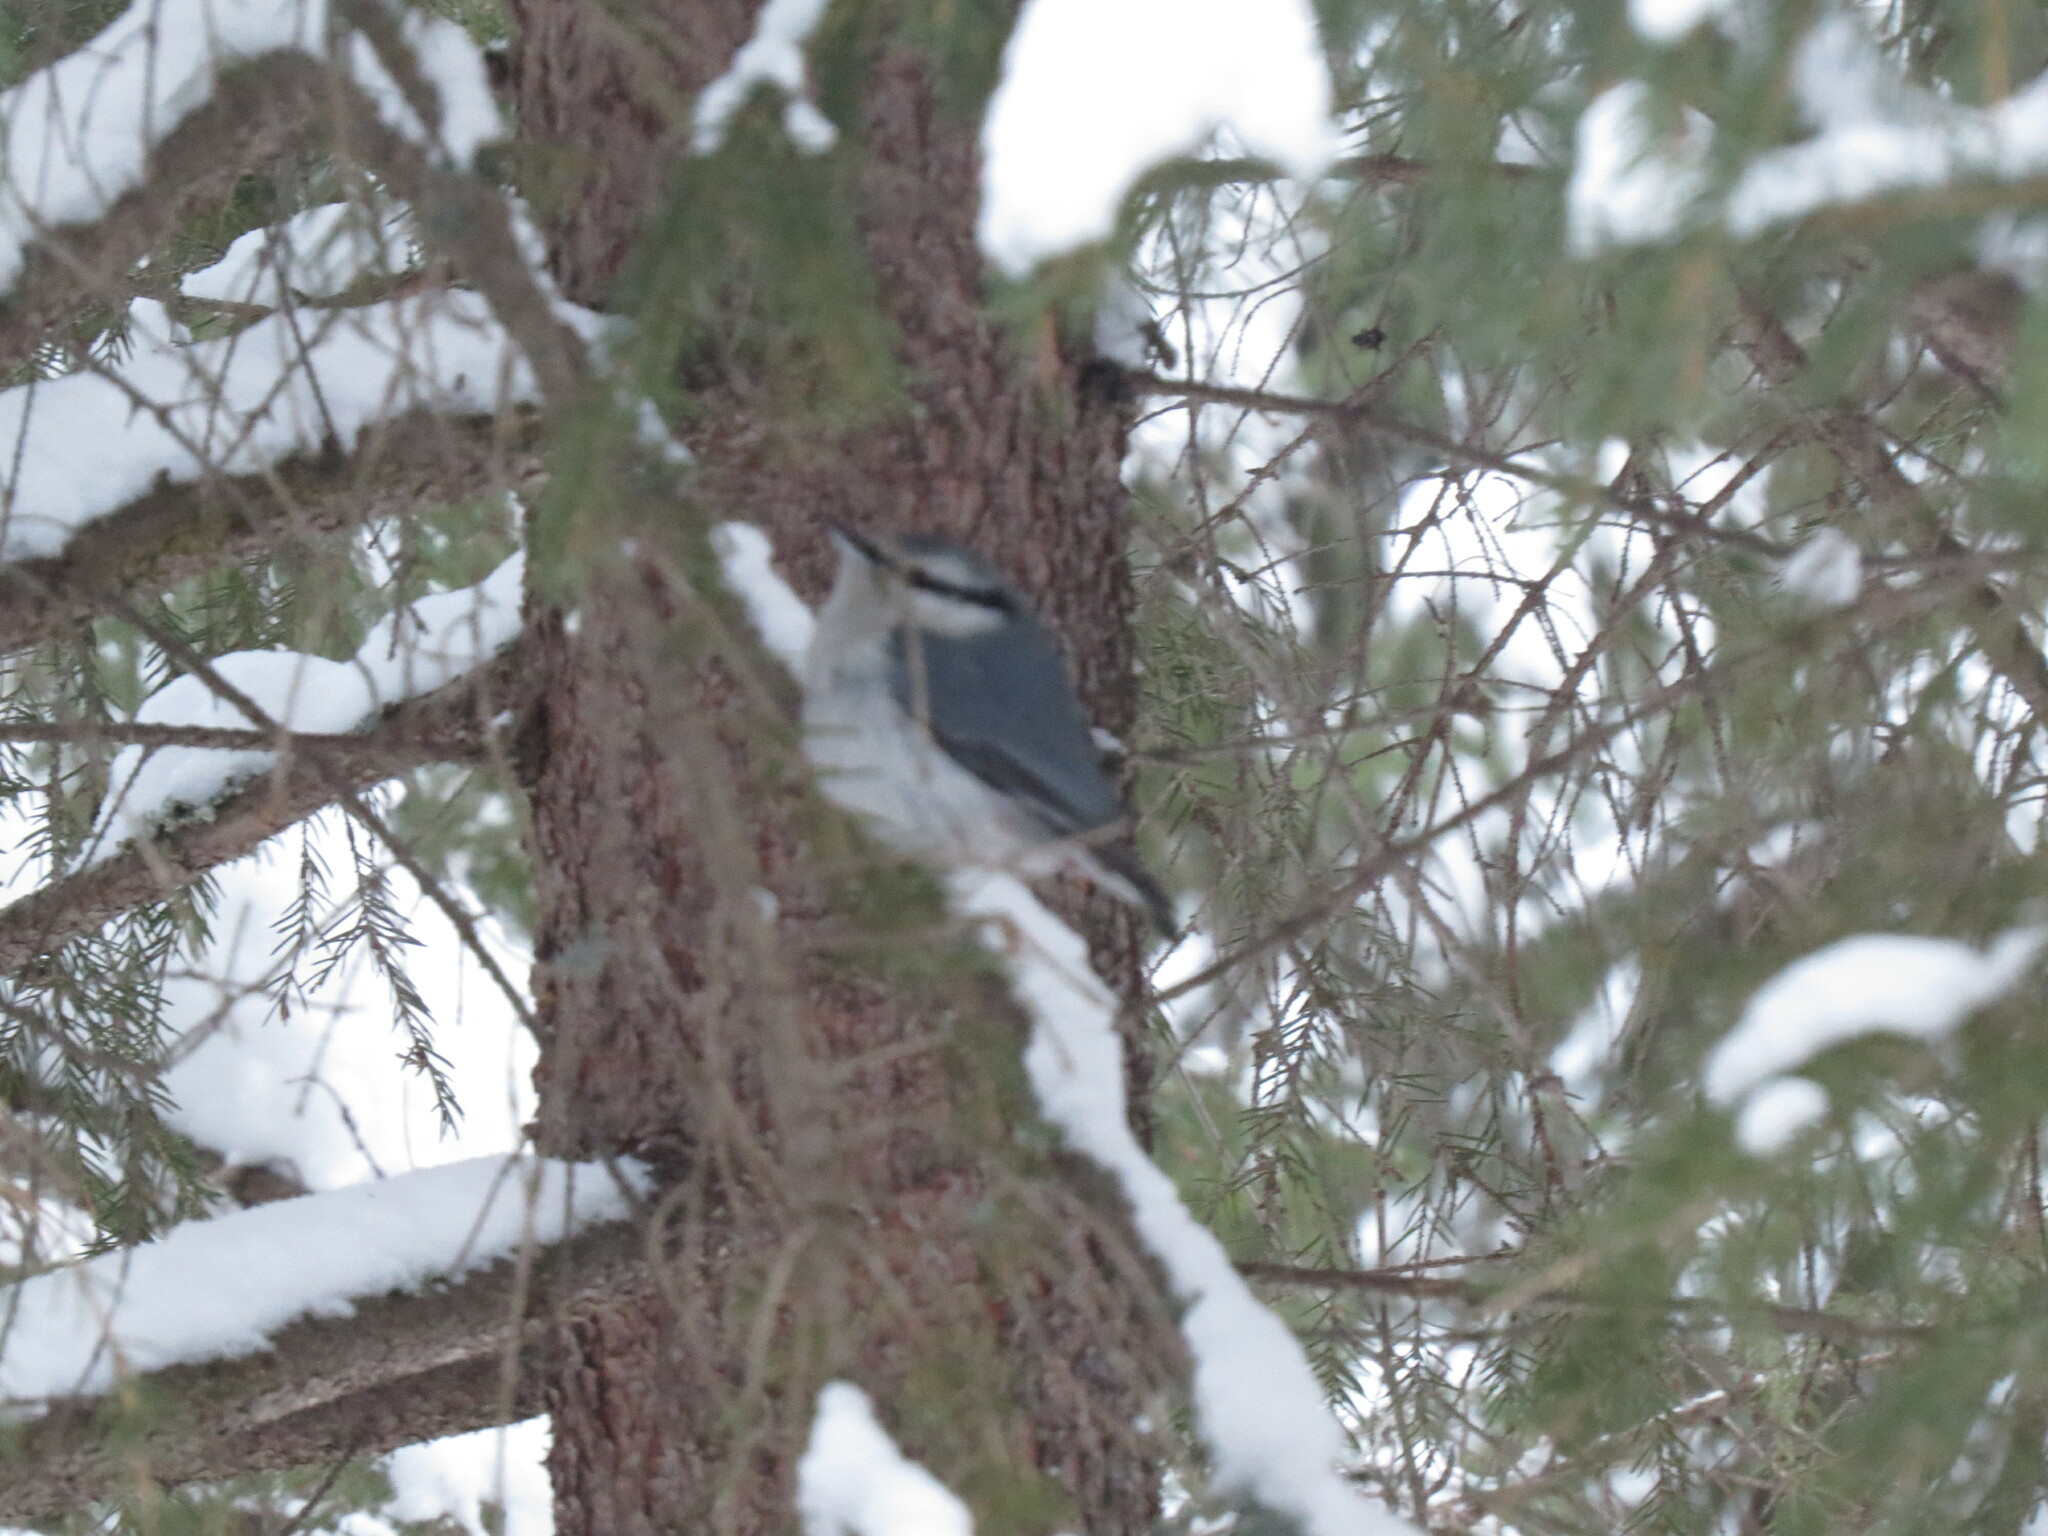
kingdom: Animalia
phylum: Chordata
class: Aves
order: Passeriformes
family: Sittidae
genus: Sitta
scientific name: Sitta europaea
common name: Eurasian nuthatch
